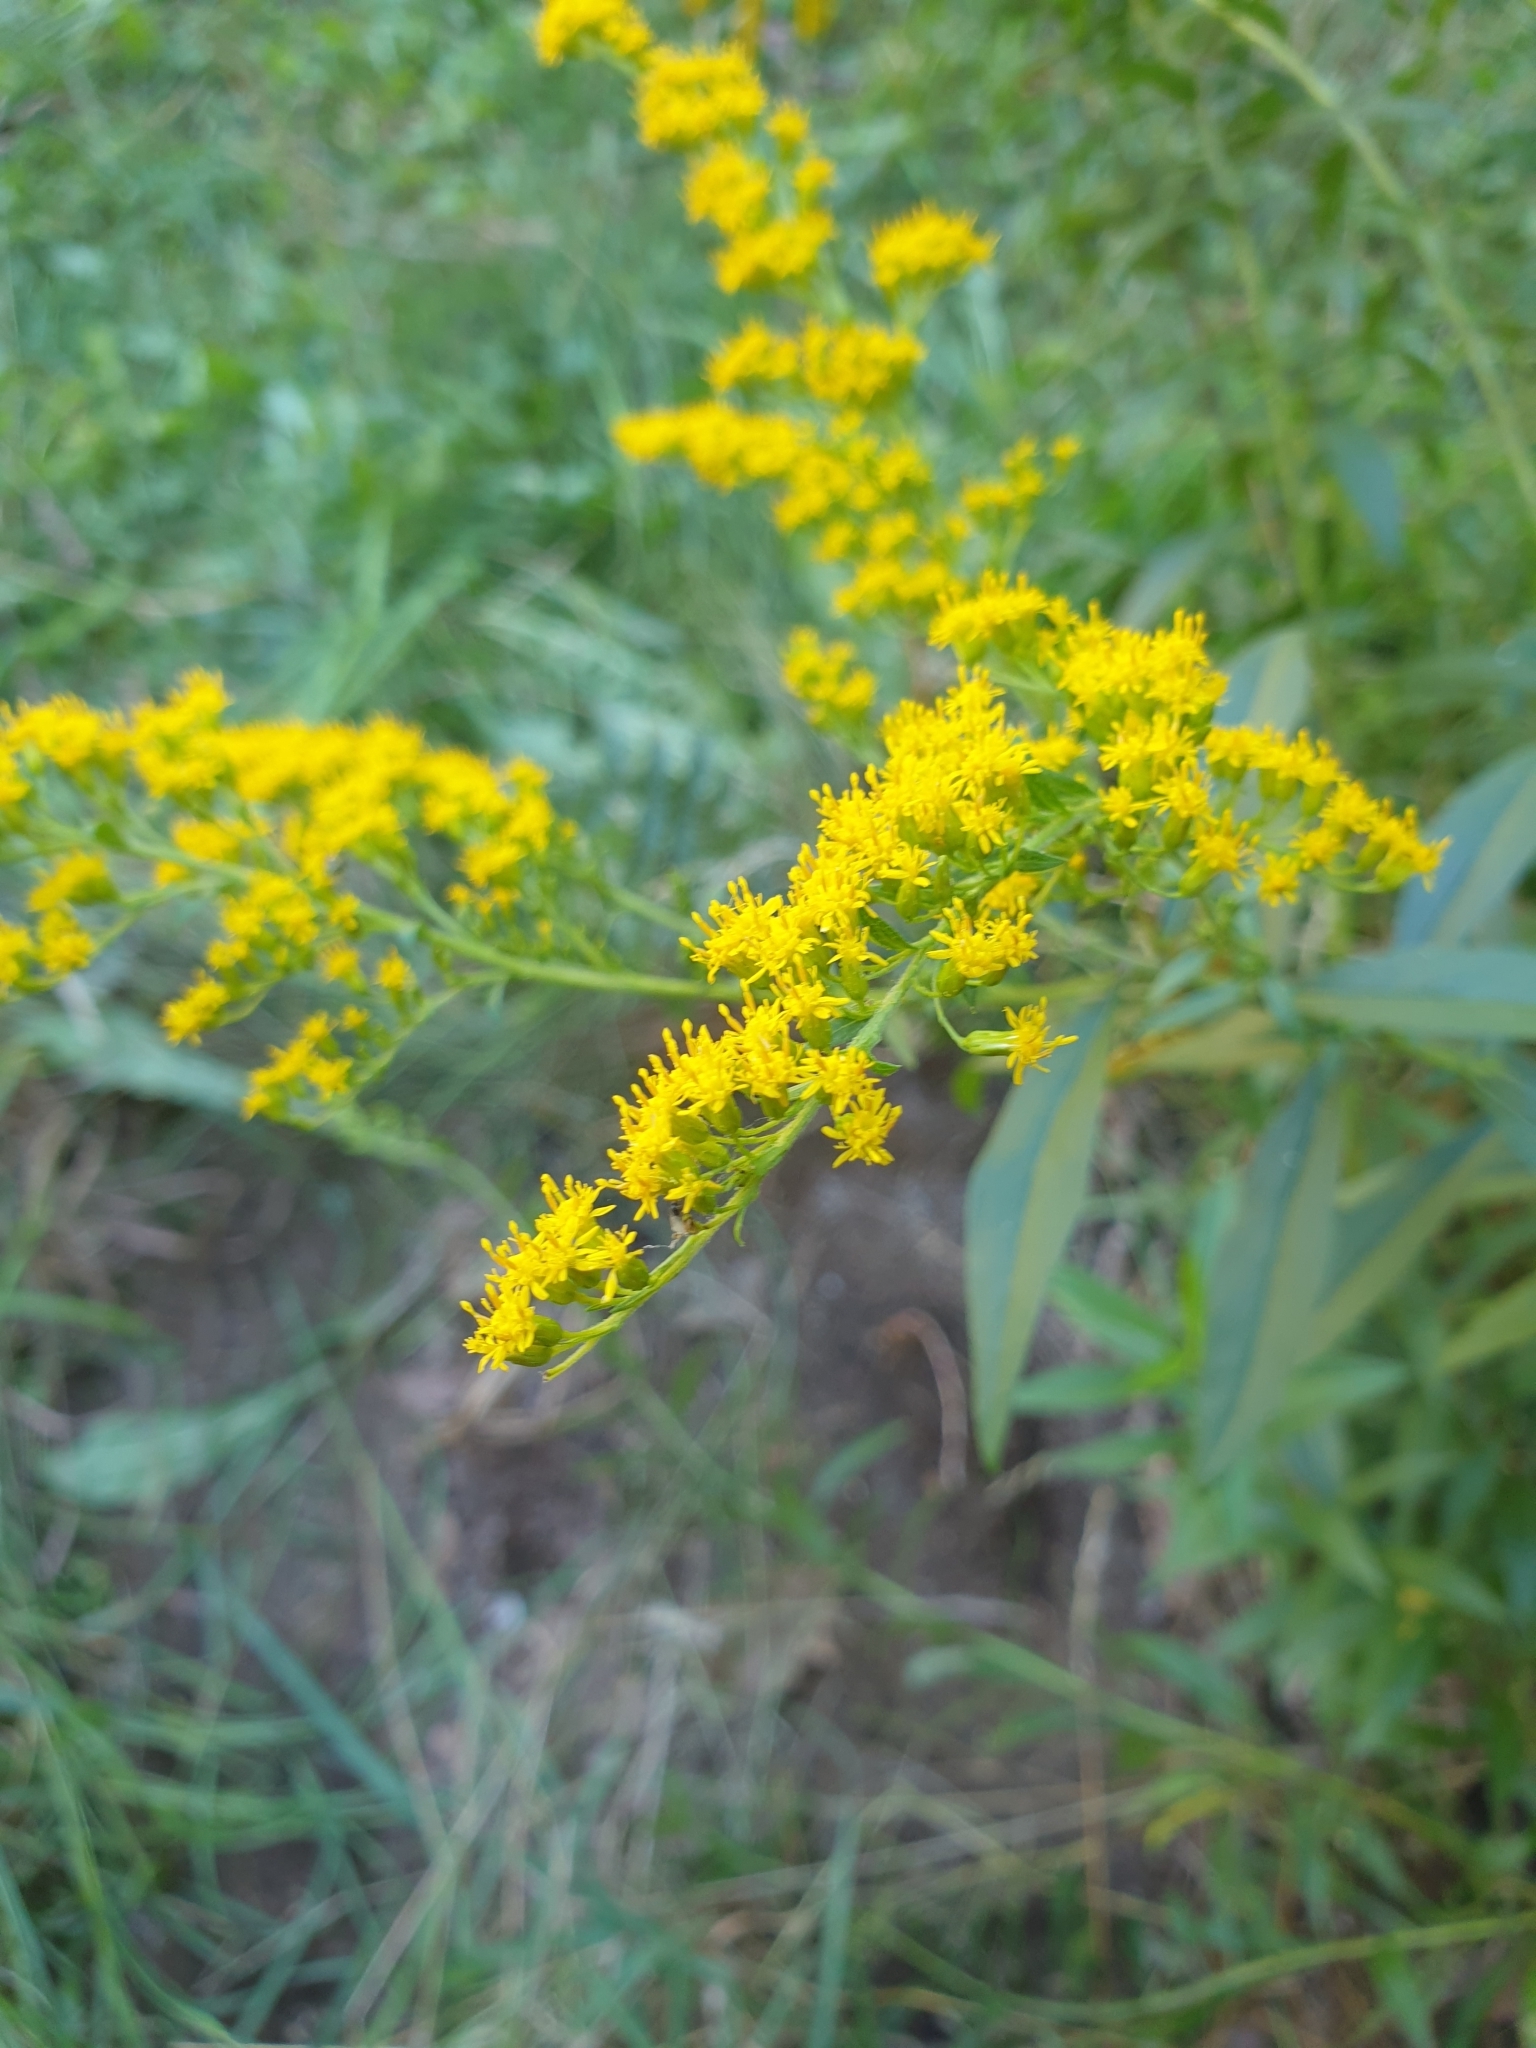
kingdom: Plantae
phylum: Tracheophyta
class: Magnoliopsida
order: Asterales
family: Asteraceae
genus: Solidago
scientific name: Solidago canadensis
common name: Canada goldenrod
